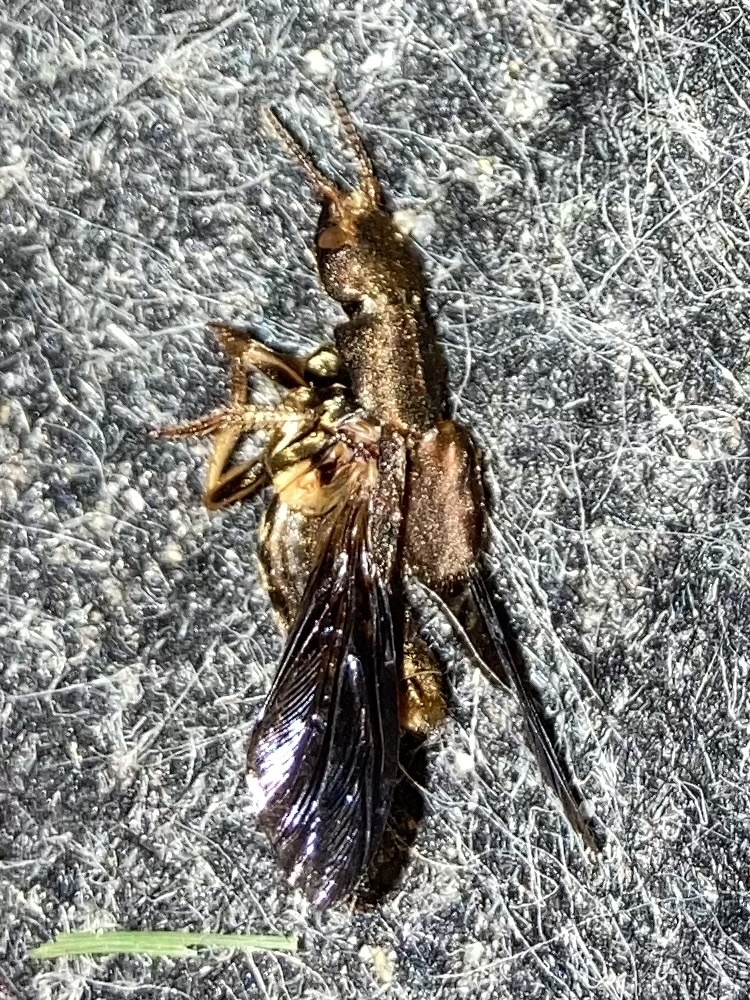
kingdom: Animalia
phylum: Arthropoda
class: Insecta
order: Coleoptera
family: Staphylinidae
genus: Platydracus
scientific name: Platydracus maculosus
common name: Brown rove beetle
